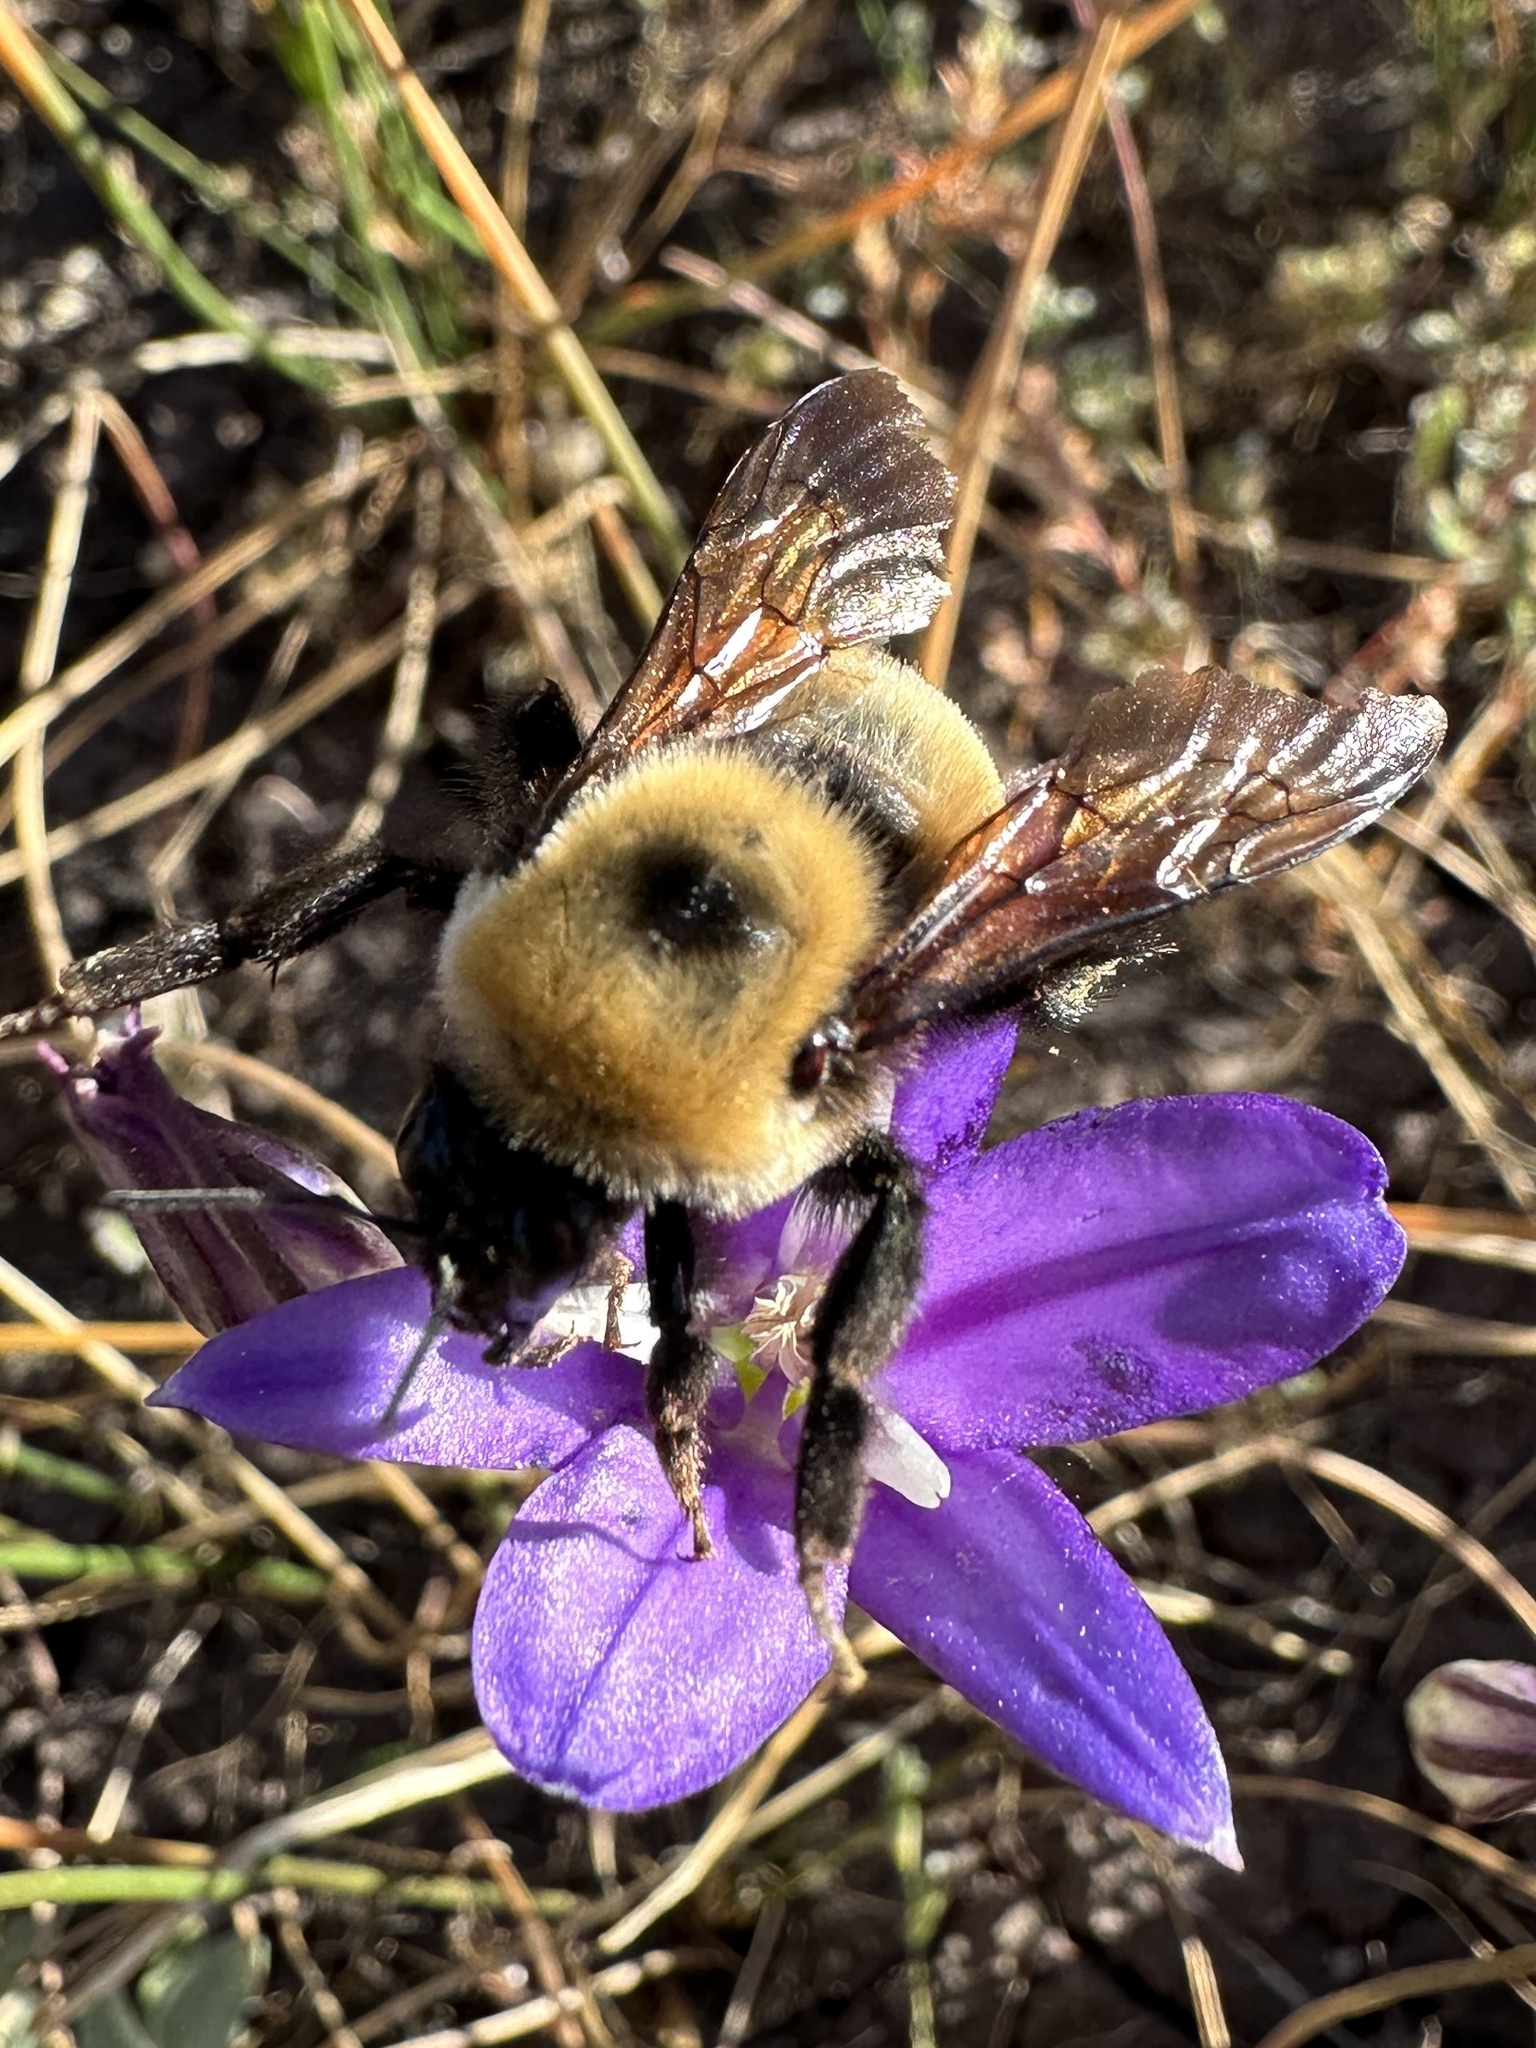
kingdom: Animalia
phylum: Arthropoda
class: Insecta
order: Hymenoptera
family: Apidae
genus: Bombus
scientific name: Bombus nevadensis
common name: Nevada bumble bee
